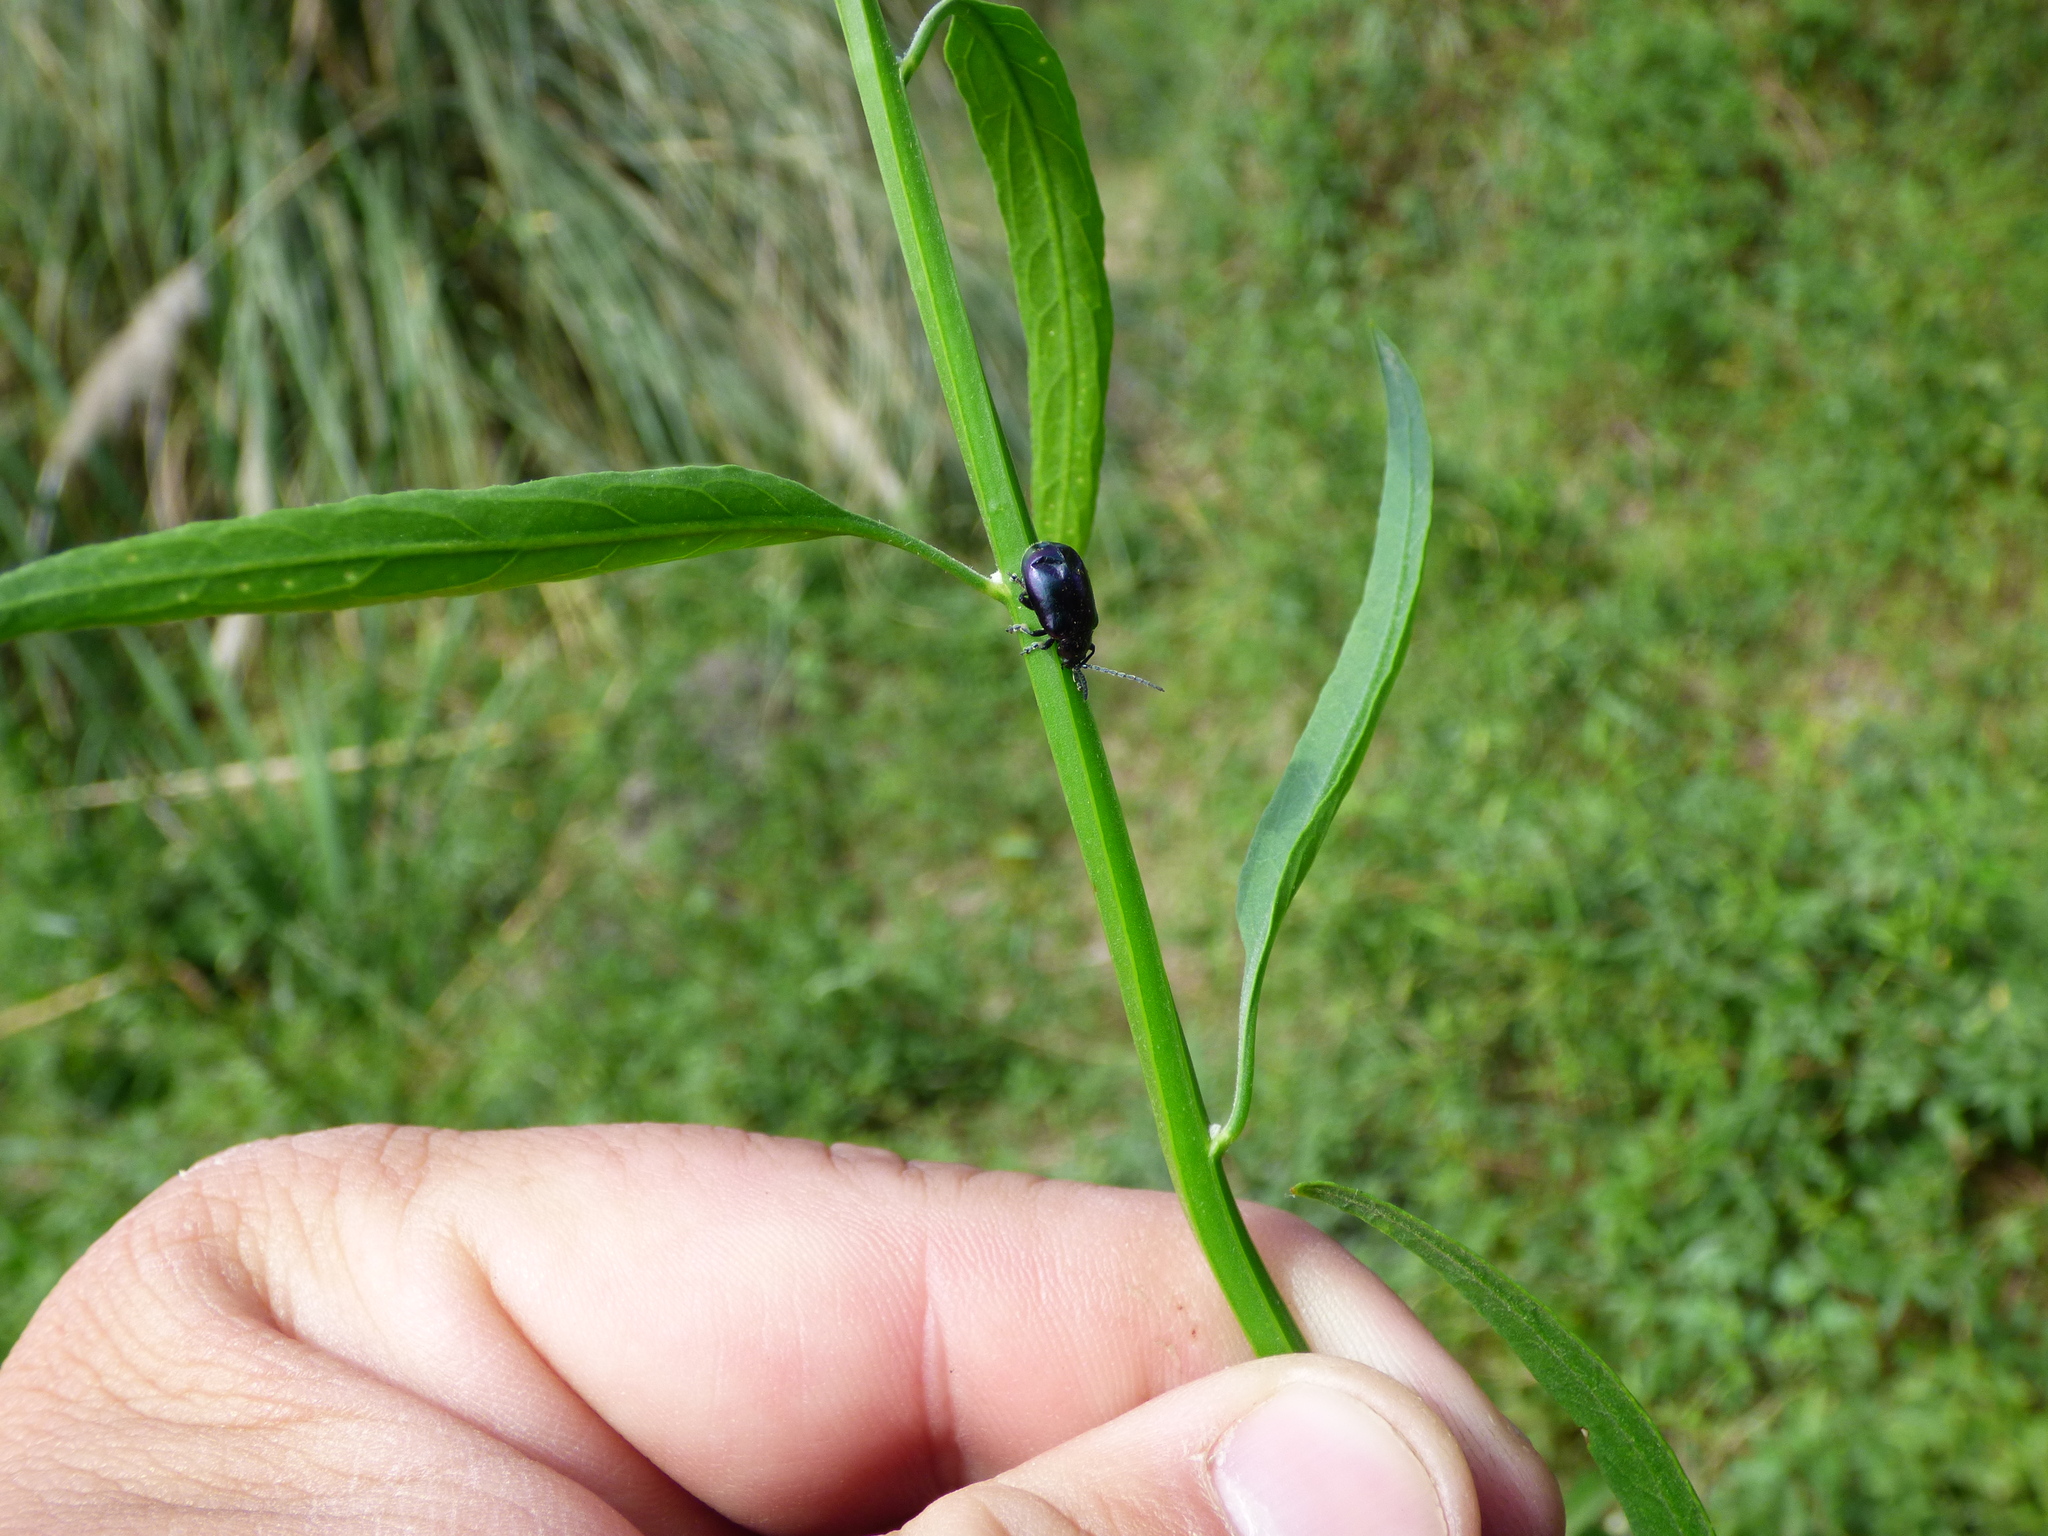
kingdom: Animalia
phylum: Arthropoda
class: Insecta
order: Coleoptera
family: Chrysomelidae
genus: Macrohaltica
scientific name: Macrohaltica
